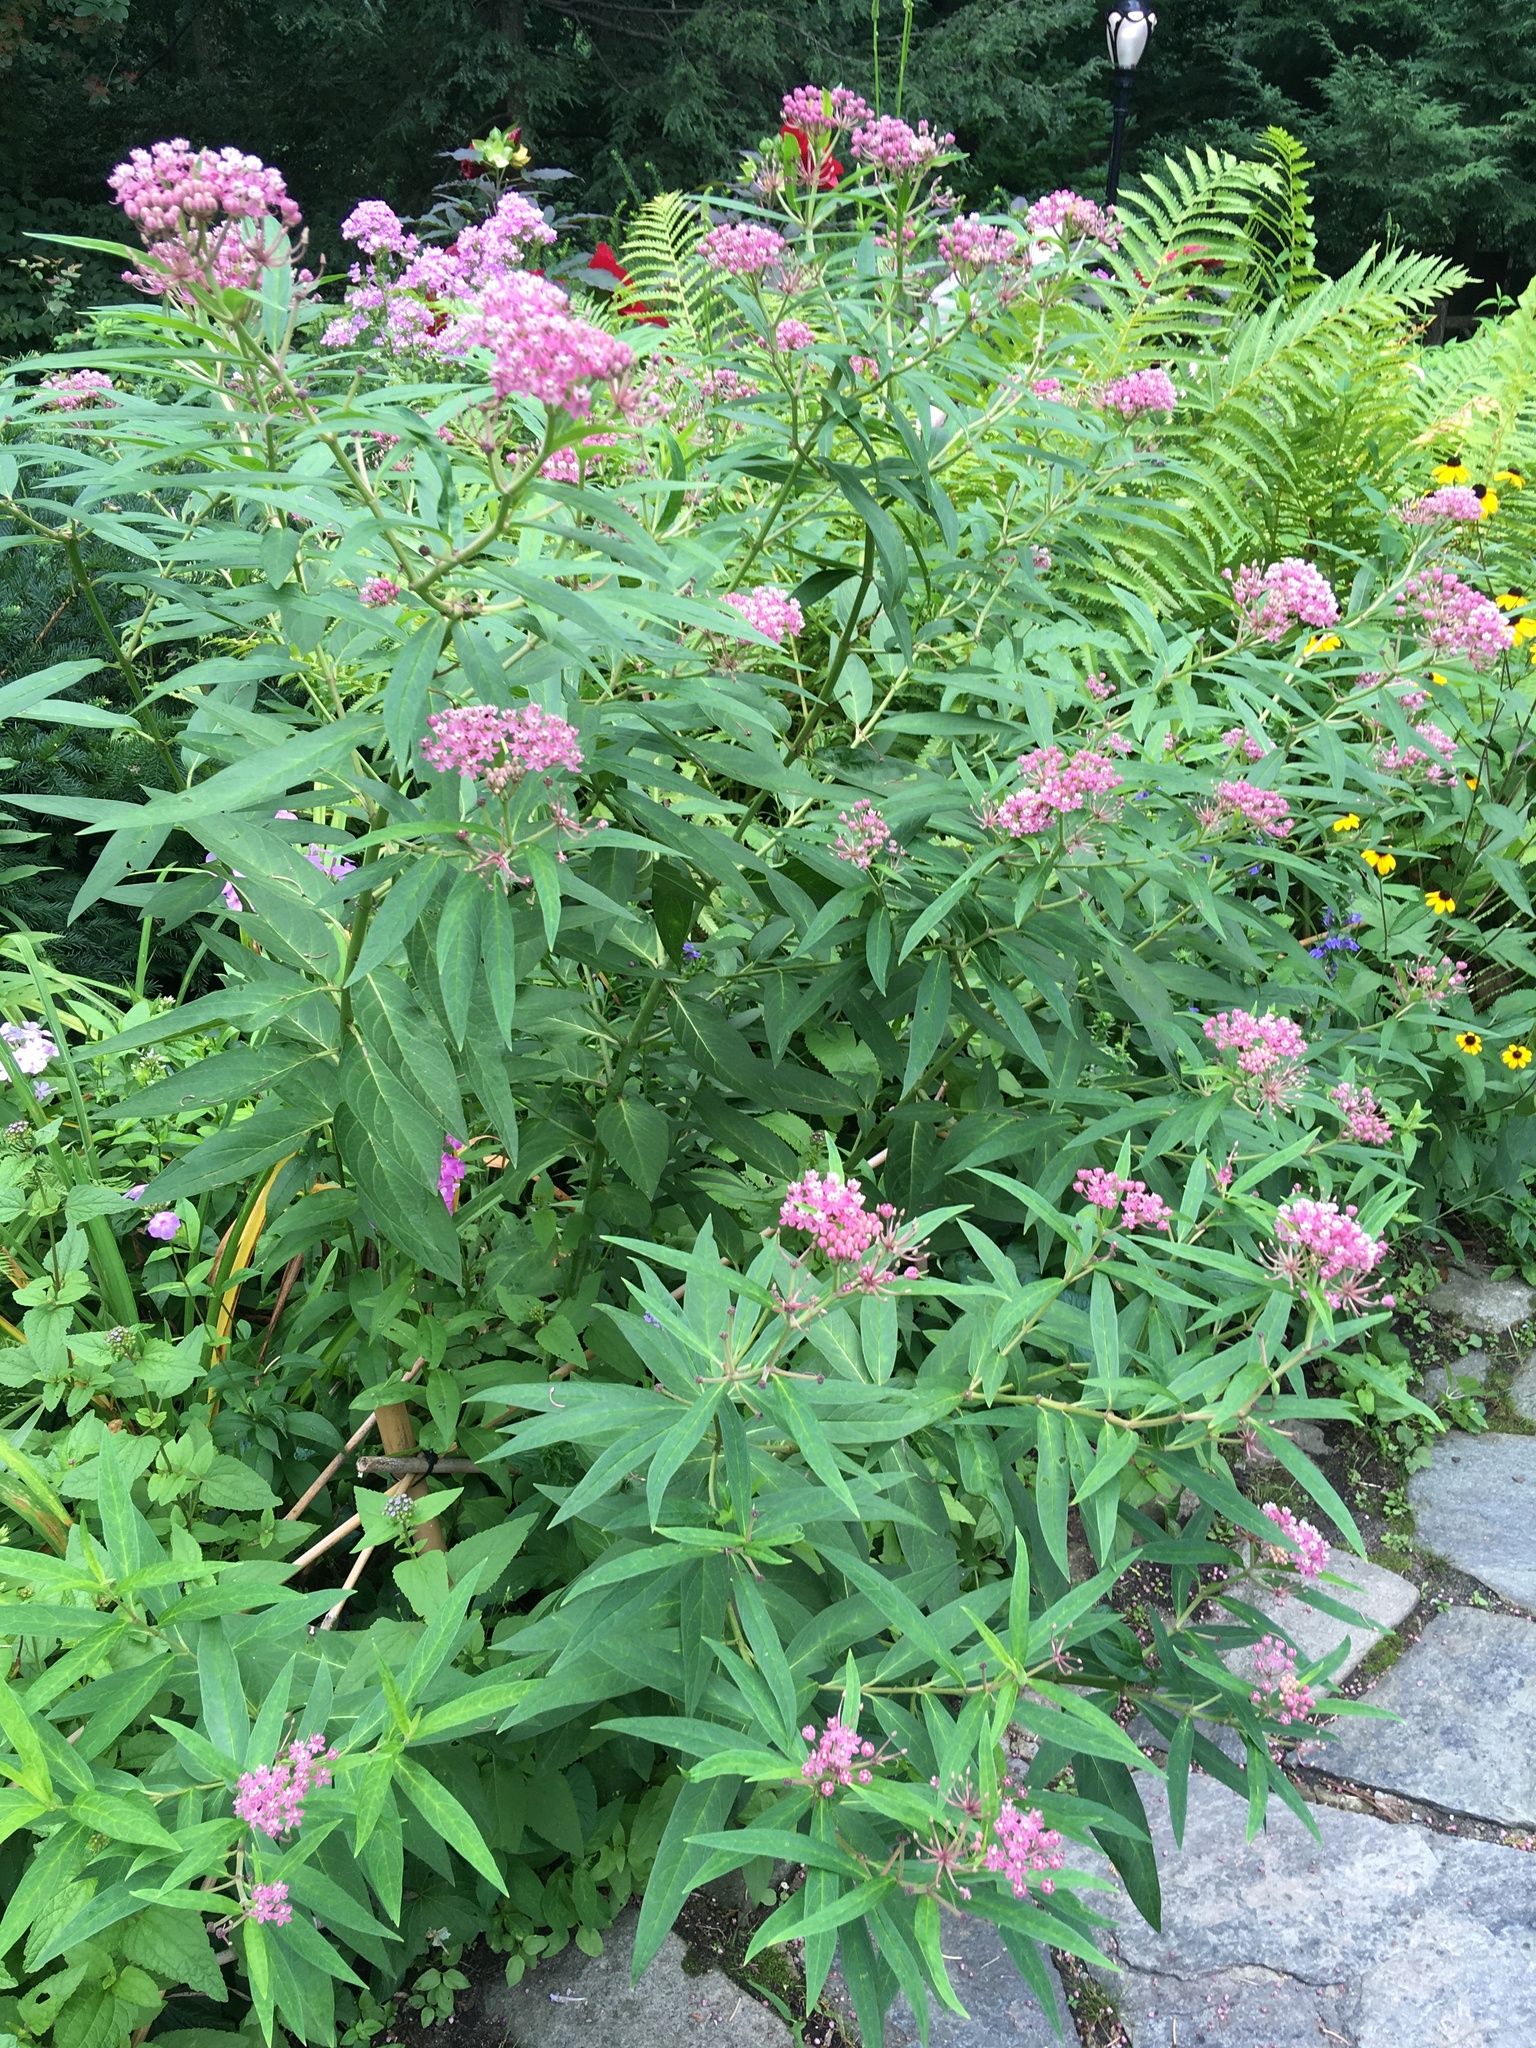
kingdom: Plantae
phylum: Tracheophyta
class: Magnoliopsida
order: Gentianales
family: Apocynaceae
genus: Asclepias
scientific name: Asclepias incarnata
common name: Swamp milkweed
